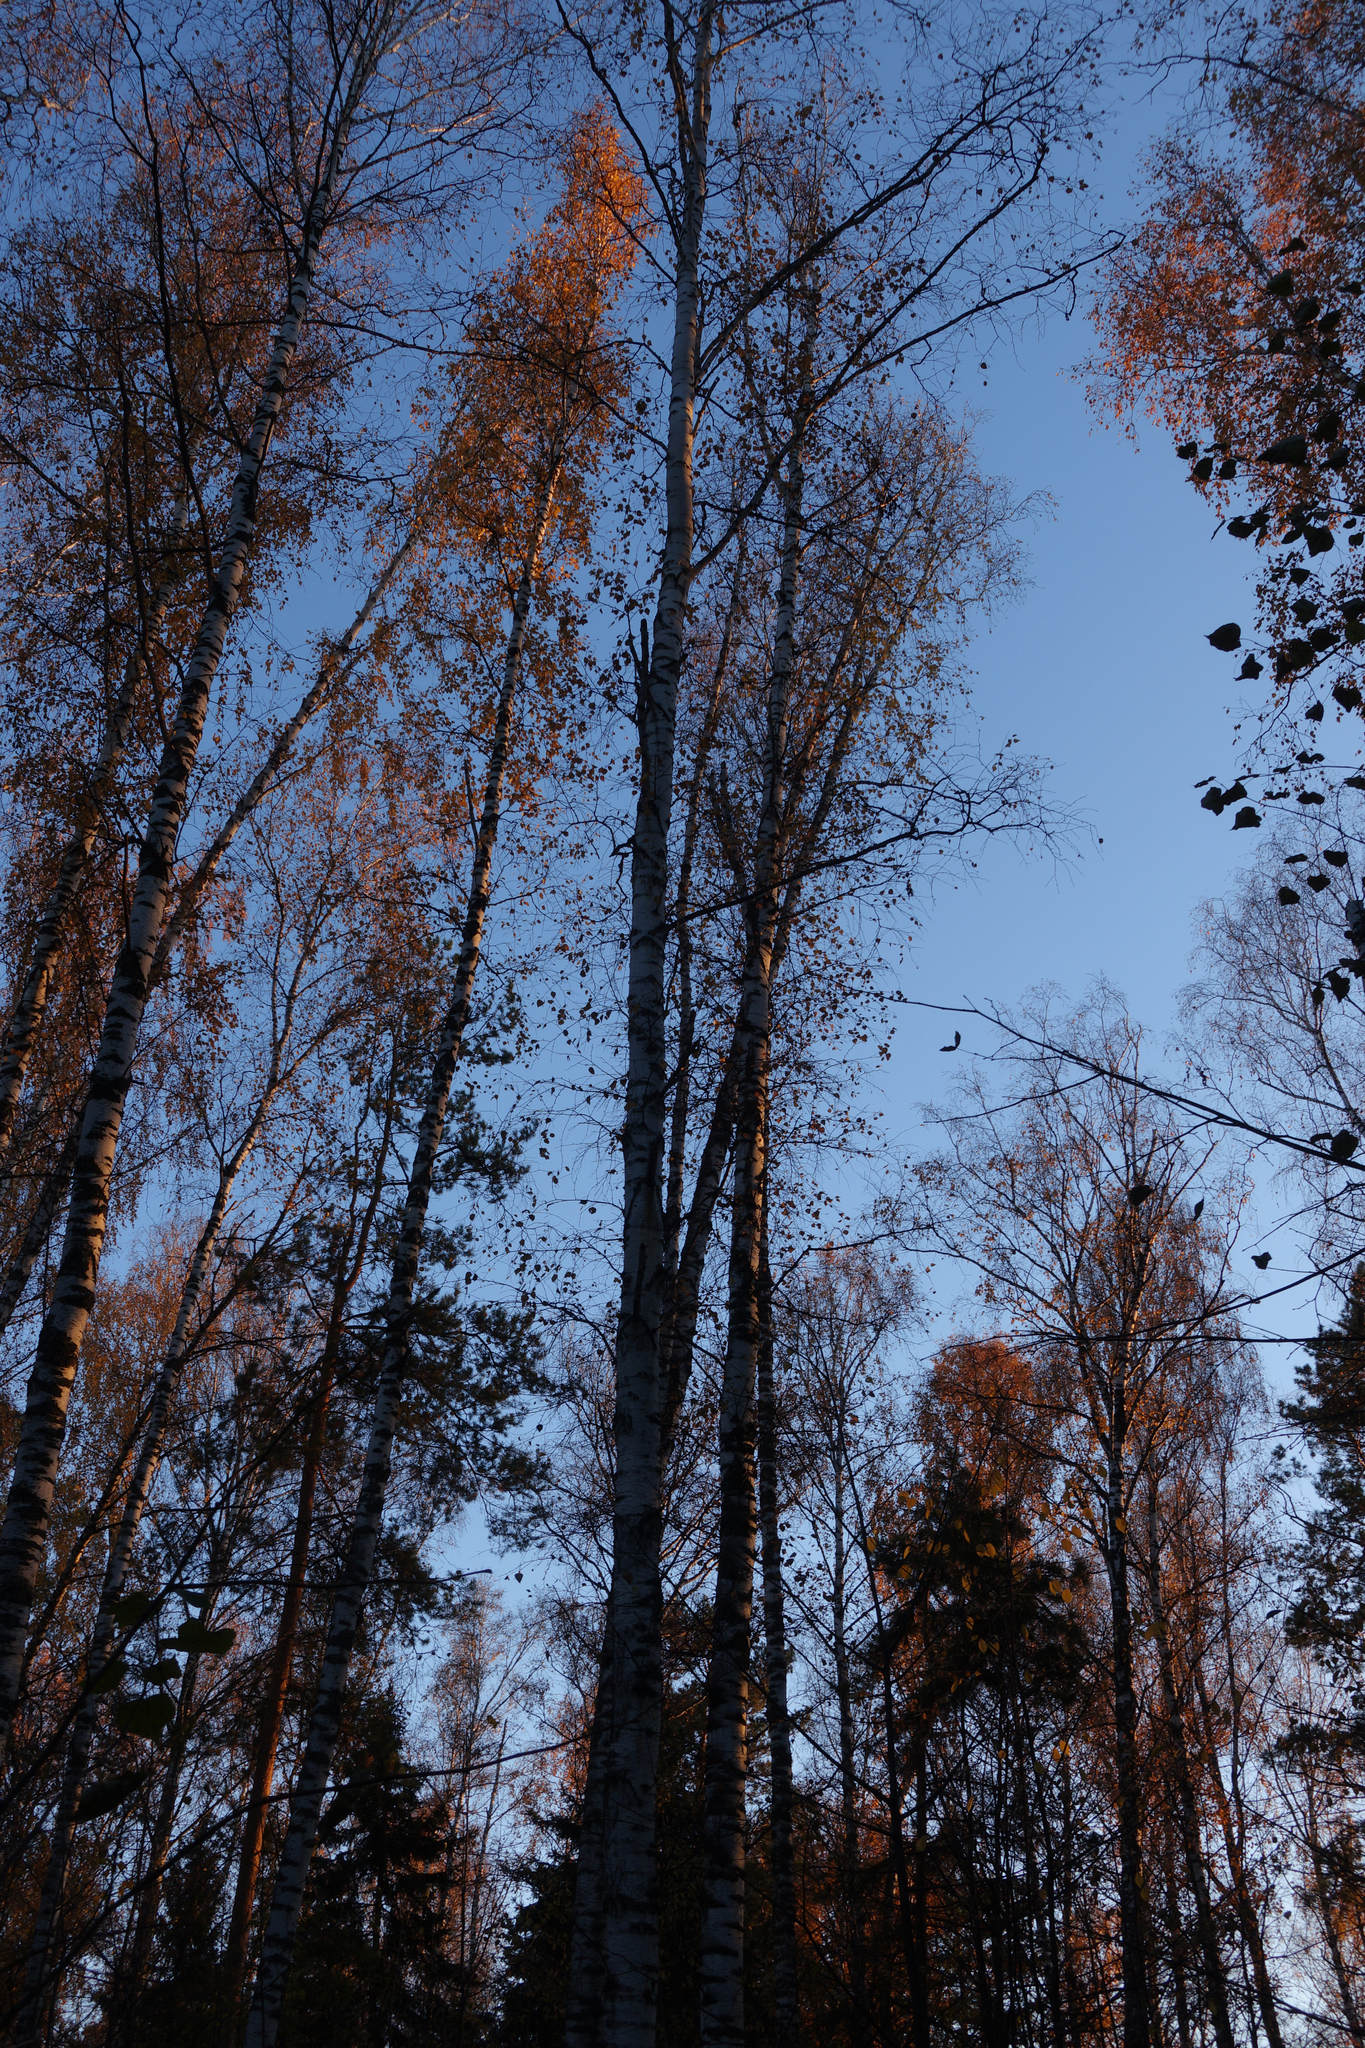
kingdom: Plantae
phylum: Tracheophyta
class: Magnoliopsida
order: Fagales
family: Betulaceae
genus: Betula
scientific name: Betula pendula
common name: Silver birch
